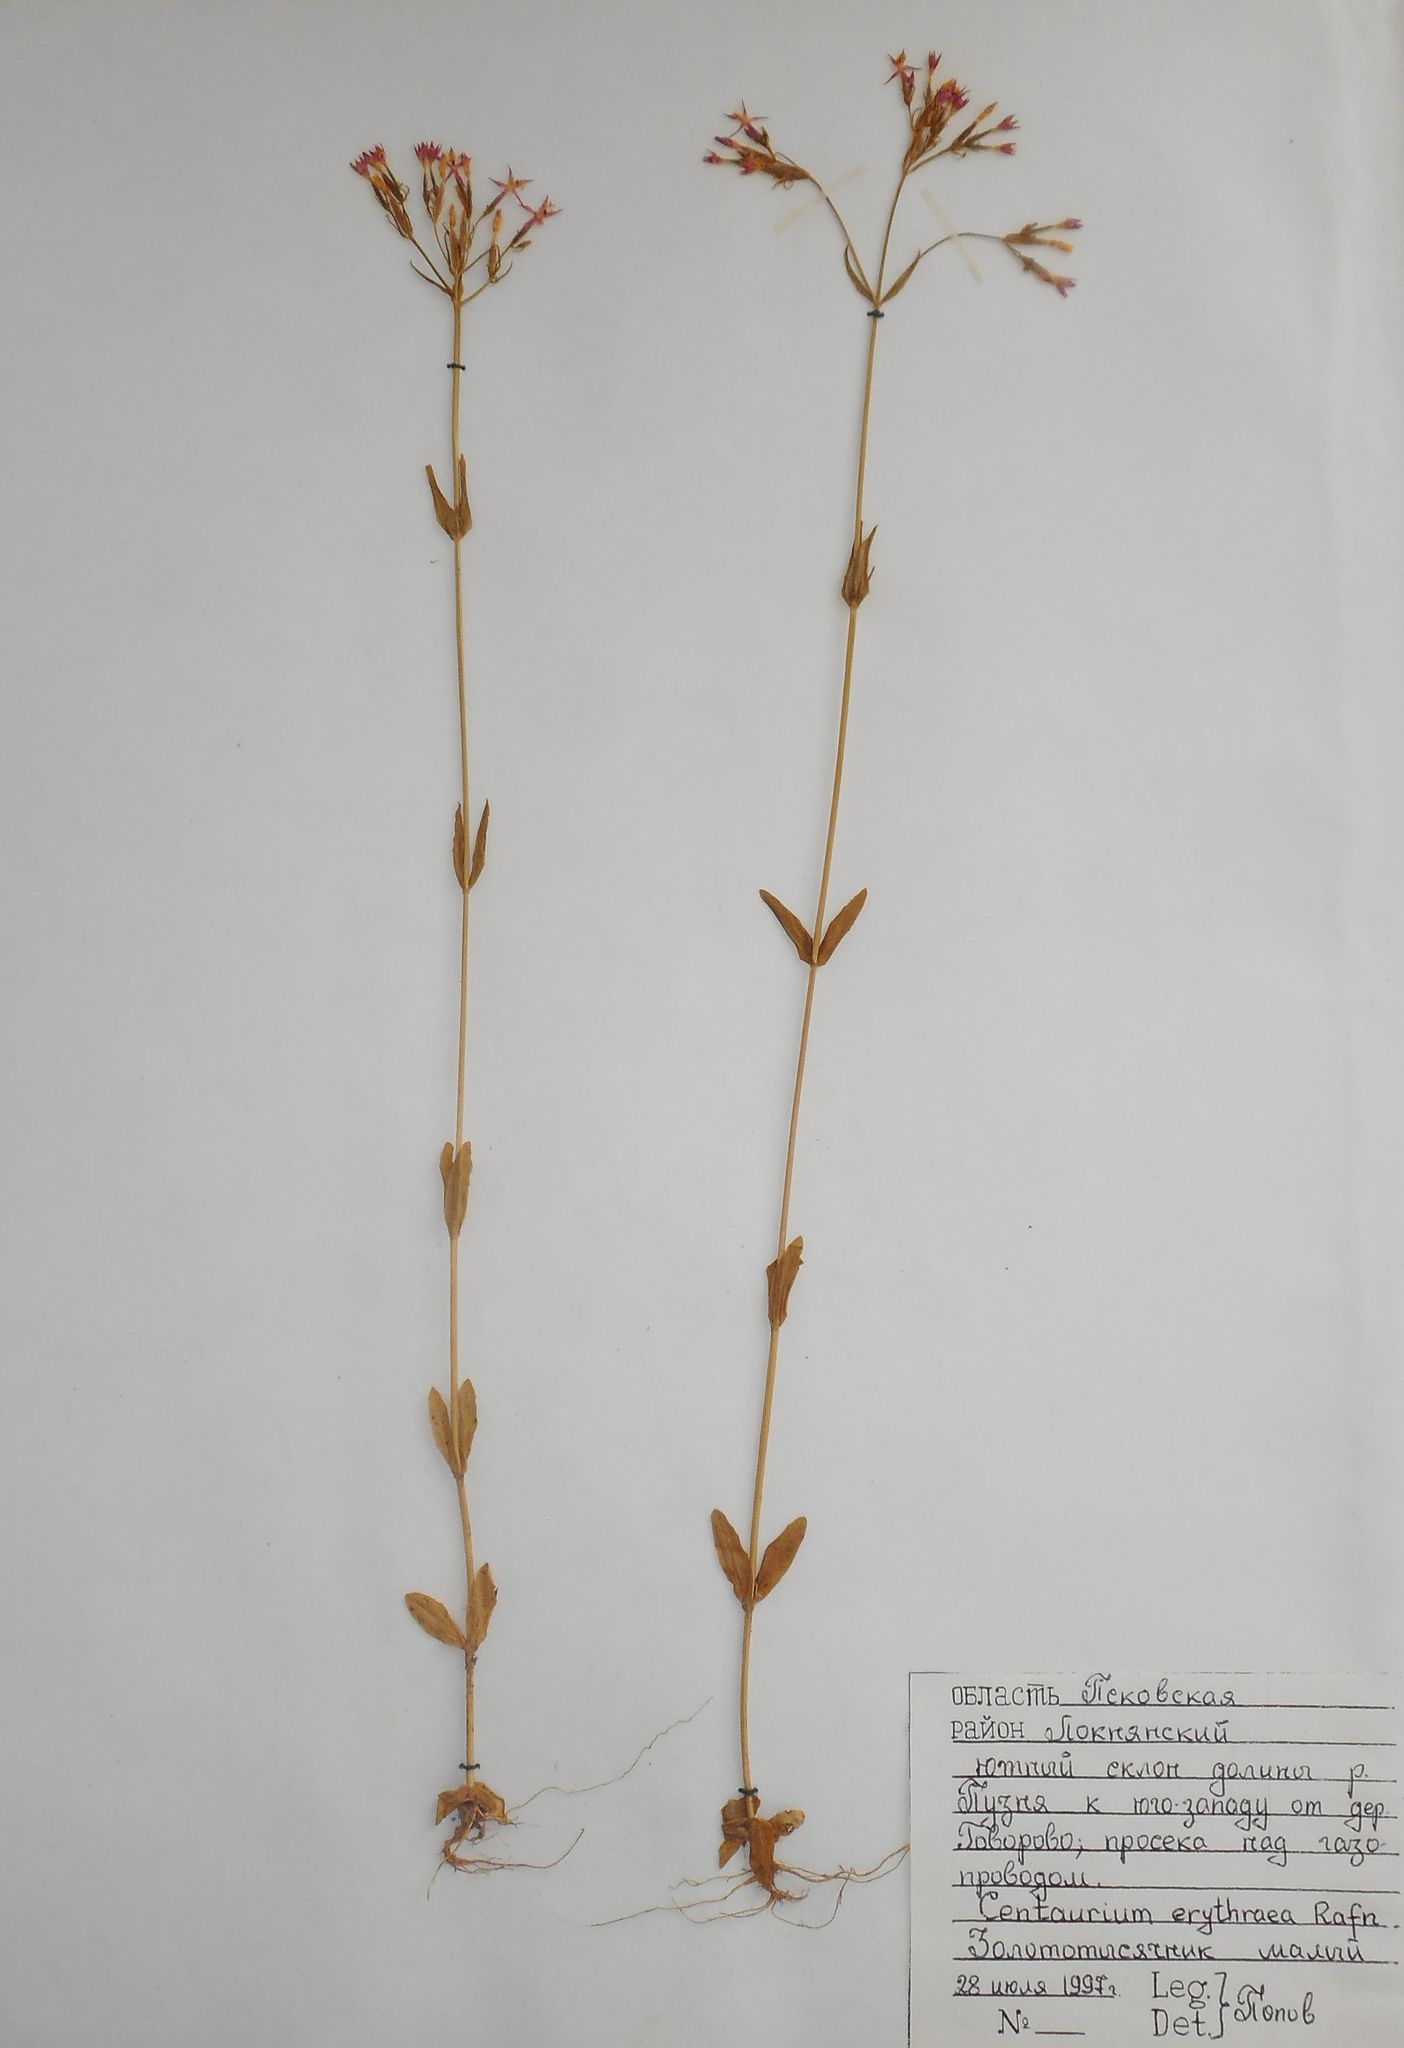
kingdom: Plantae
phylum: Tracheophyta
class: Magnoliopsida
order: Gentianales
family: Gentianaceae
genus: Centaurium
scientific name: Centaurium erythraea
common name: Common centaury
